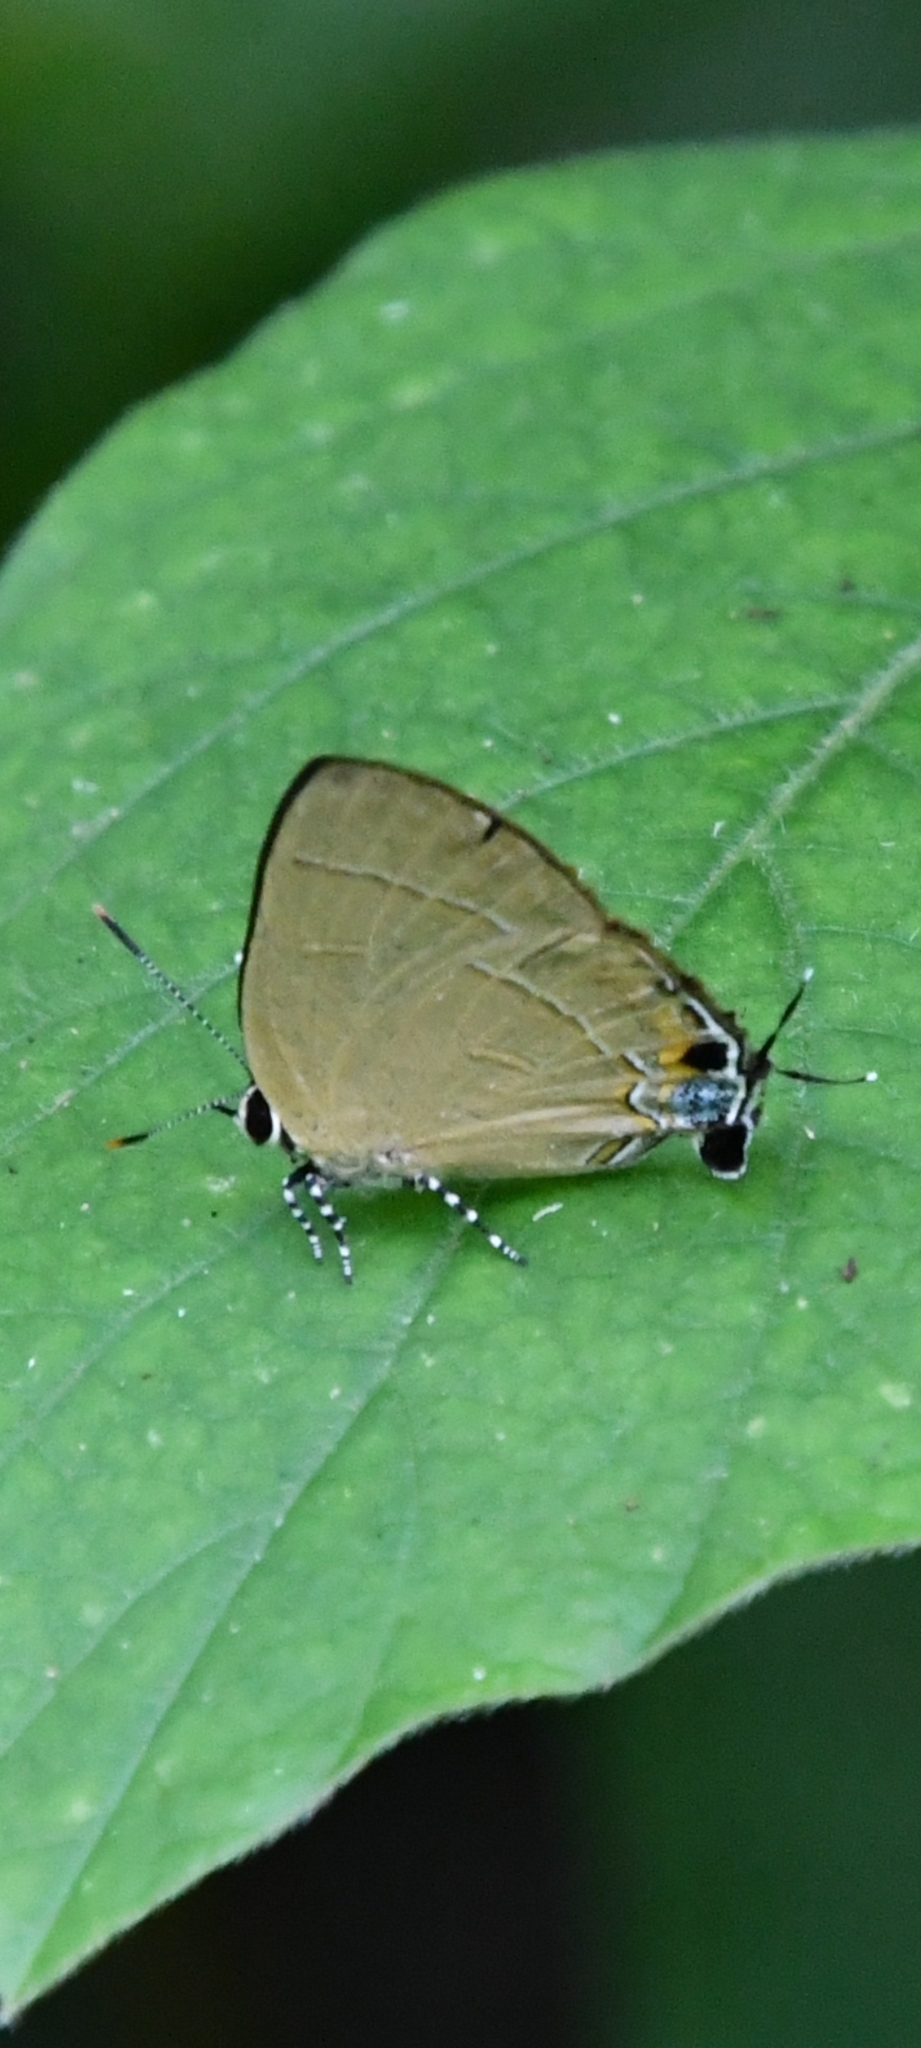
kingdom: Animalia
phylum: Arthropoda
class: Insecta
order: Lepidoptera
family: Lycaenidae
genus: Rapala
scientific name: Rapala dieneces
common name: Scarlet flash
